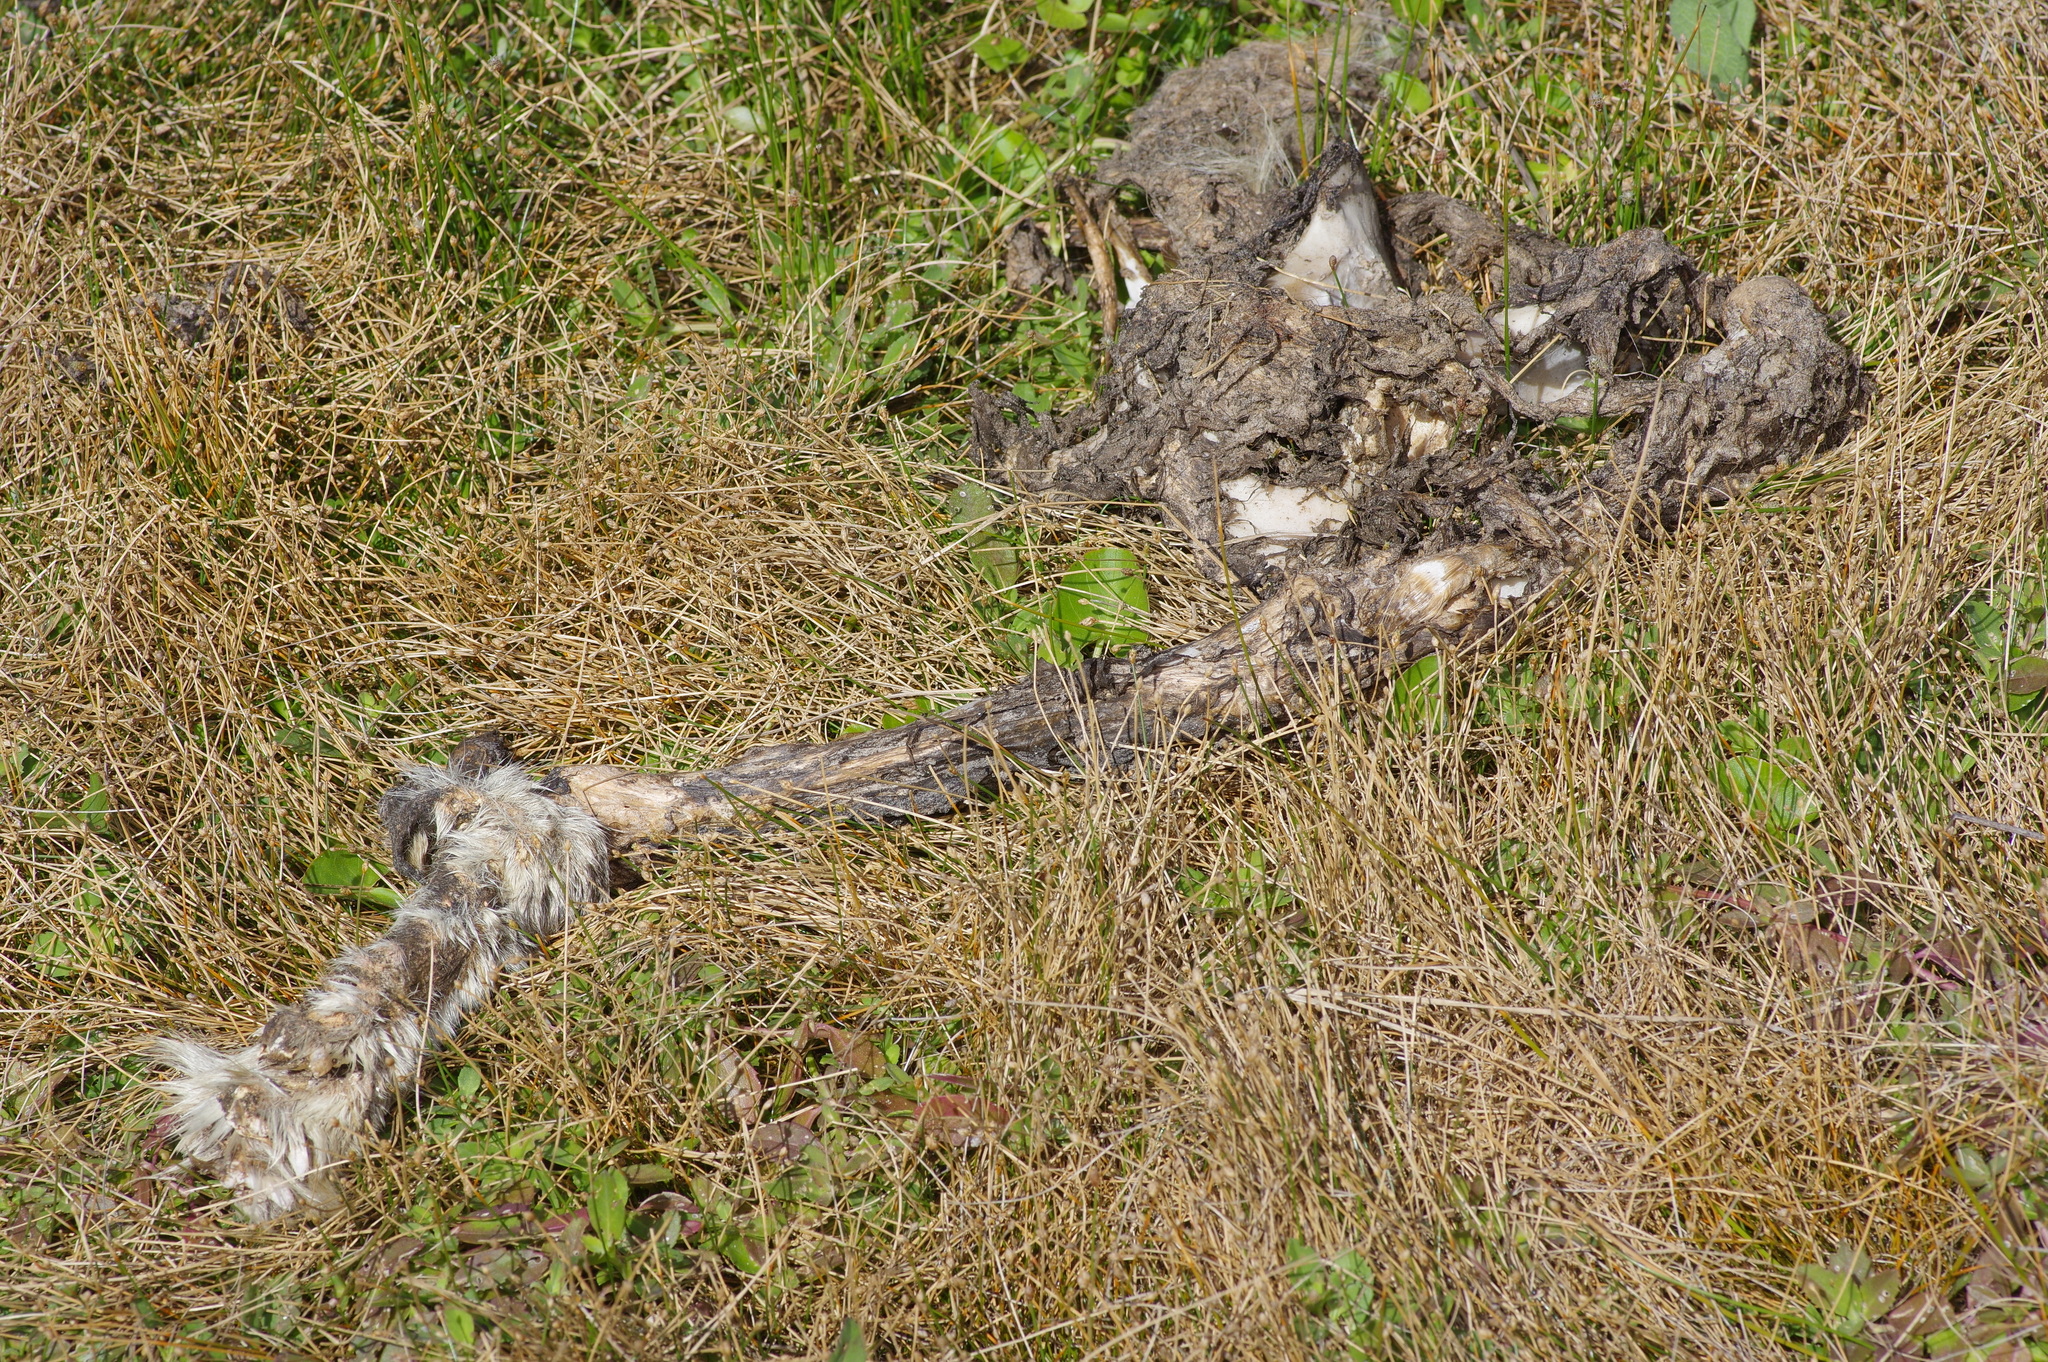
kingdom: Animalia
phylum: Chordata
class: Mammalia
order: Carnivora
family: Canidae
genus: Canis
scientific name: Canis latrans
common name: Coyote
